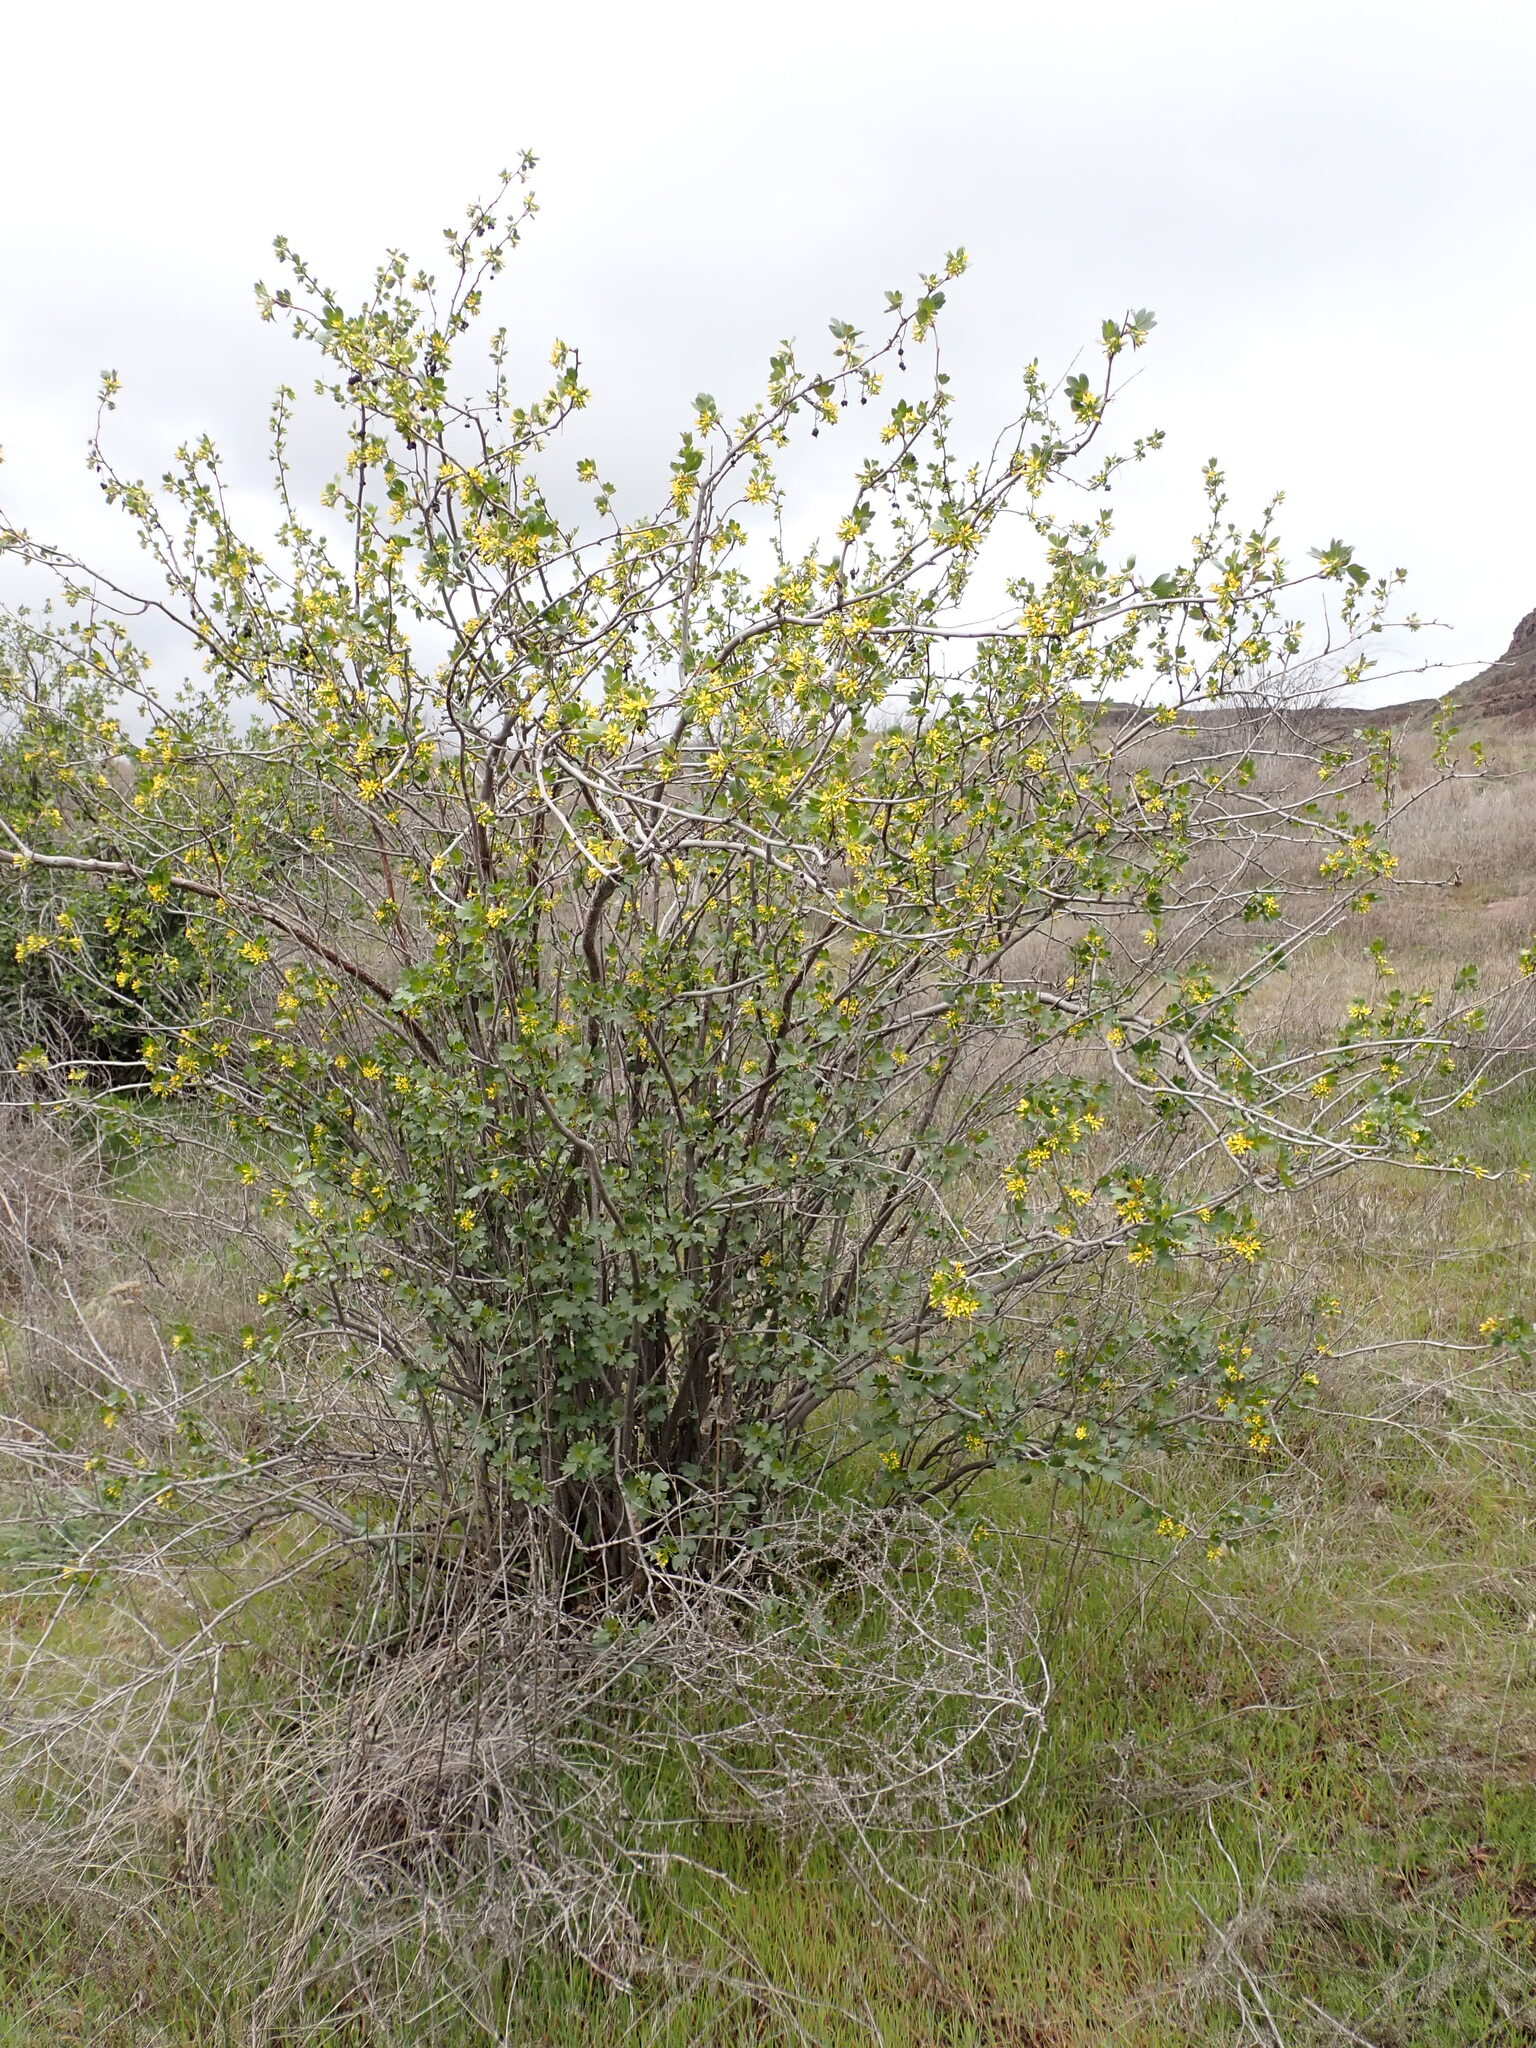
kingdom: Plantae
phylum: Tracheophyta
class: Magnoliopsida
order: Saxifragales
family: Grossulariaceae
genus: Ribes
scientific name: Ribes aureum
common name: Golden currant
